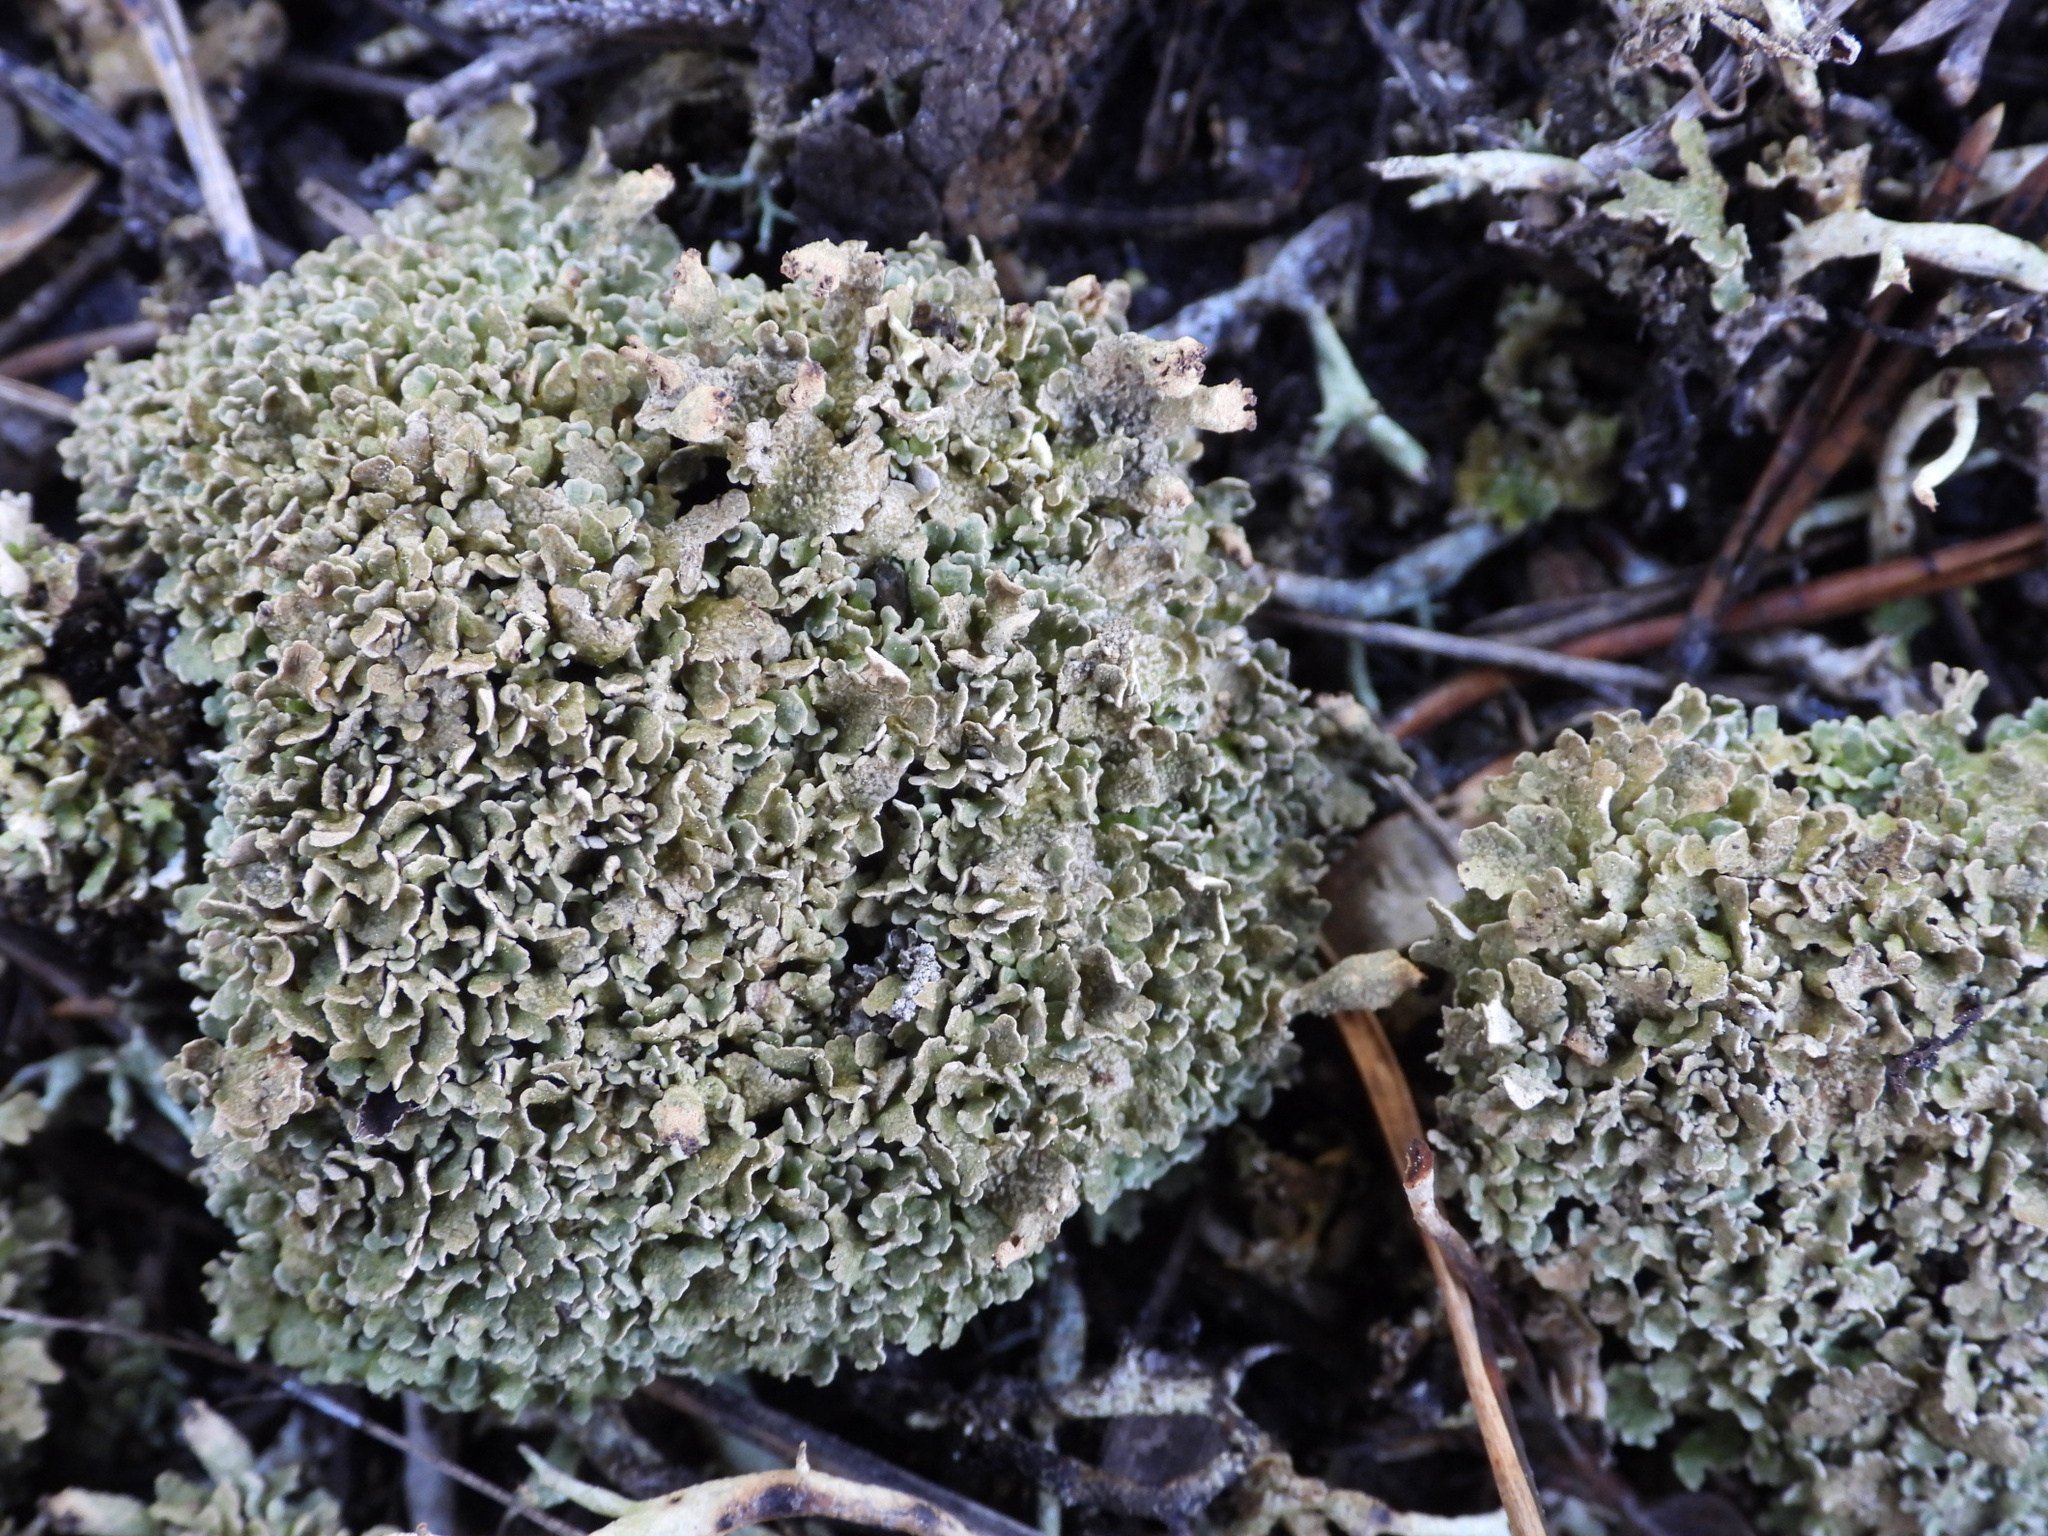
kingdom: Fungi
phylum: Ascomycota
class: Lecanoromycetes
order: Lecanorales
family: Cladoniaceae
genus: Cladonia
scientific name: Cladonia strepsilis
